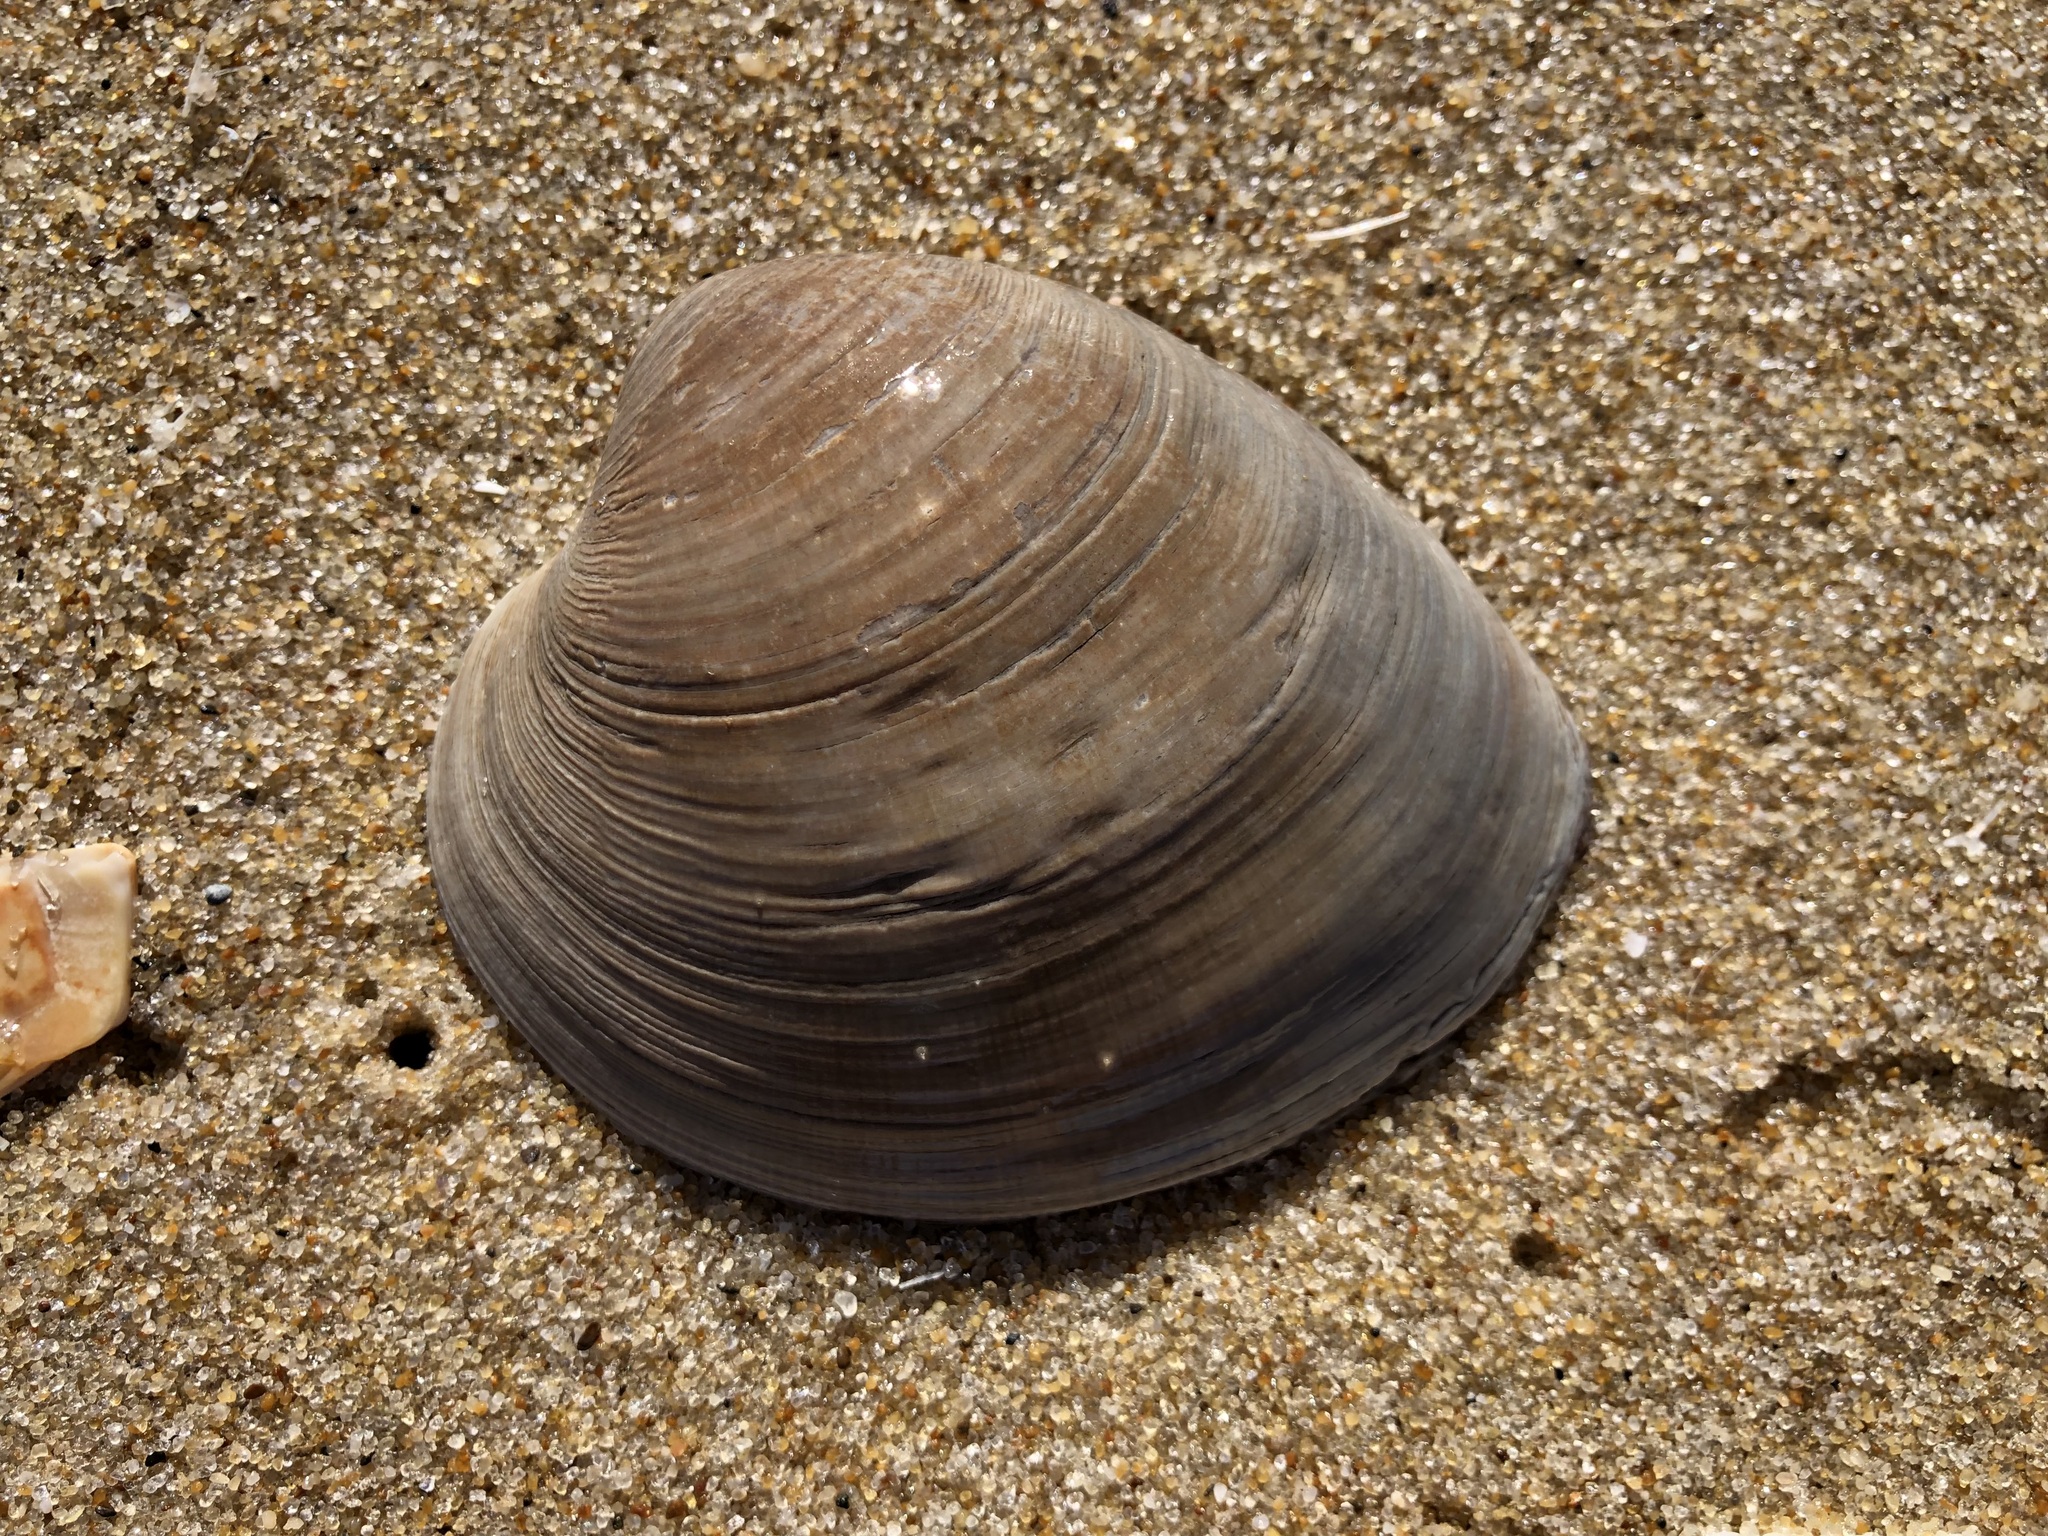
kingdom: Animalia
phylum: Mollusca
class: Bivalvia
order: Venerida
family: Veneridae
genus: Mercenaria
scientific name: Mercenaria mercenaria
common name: American hard-shelled clam
